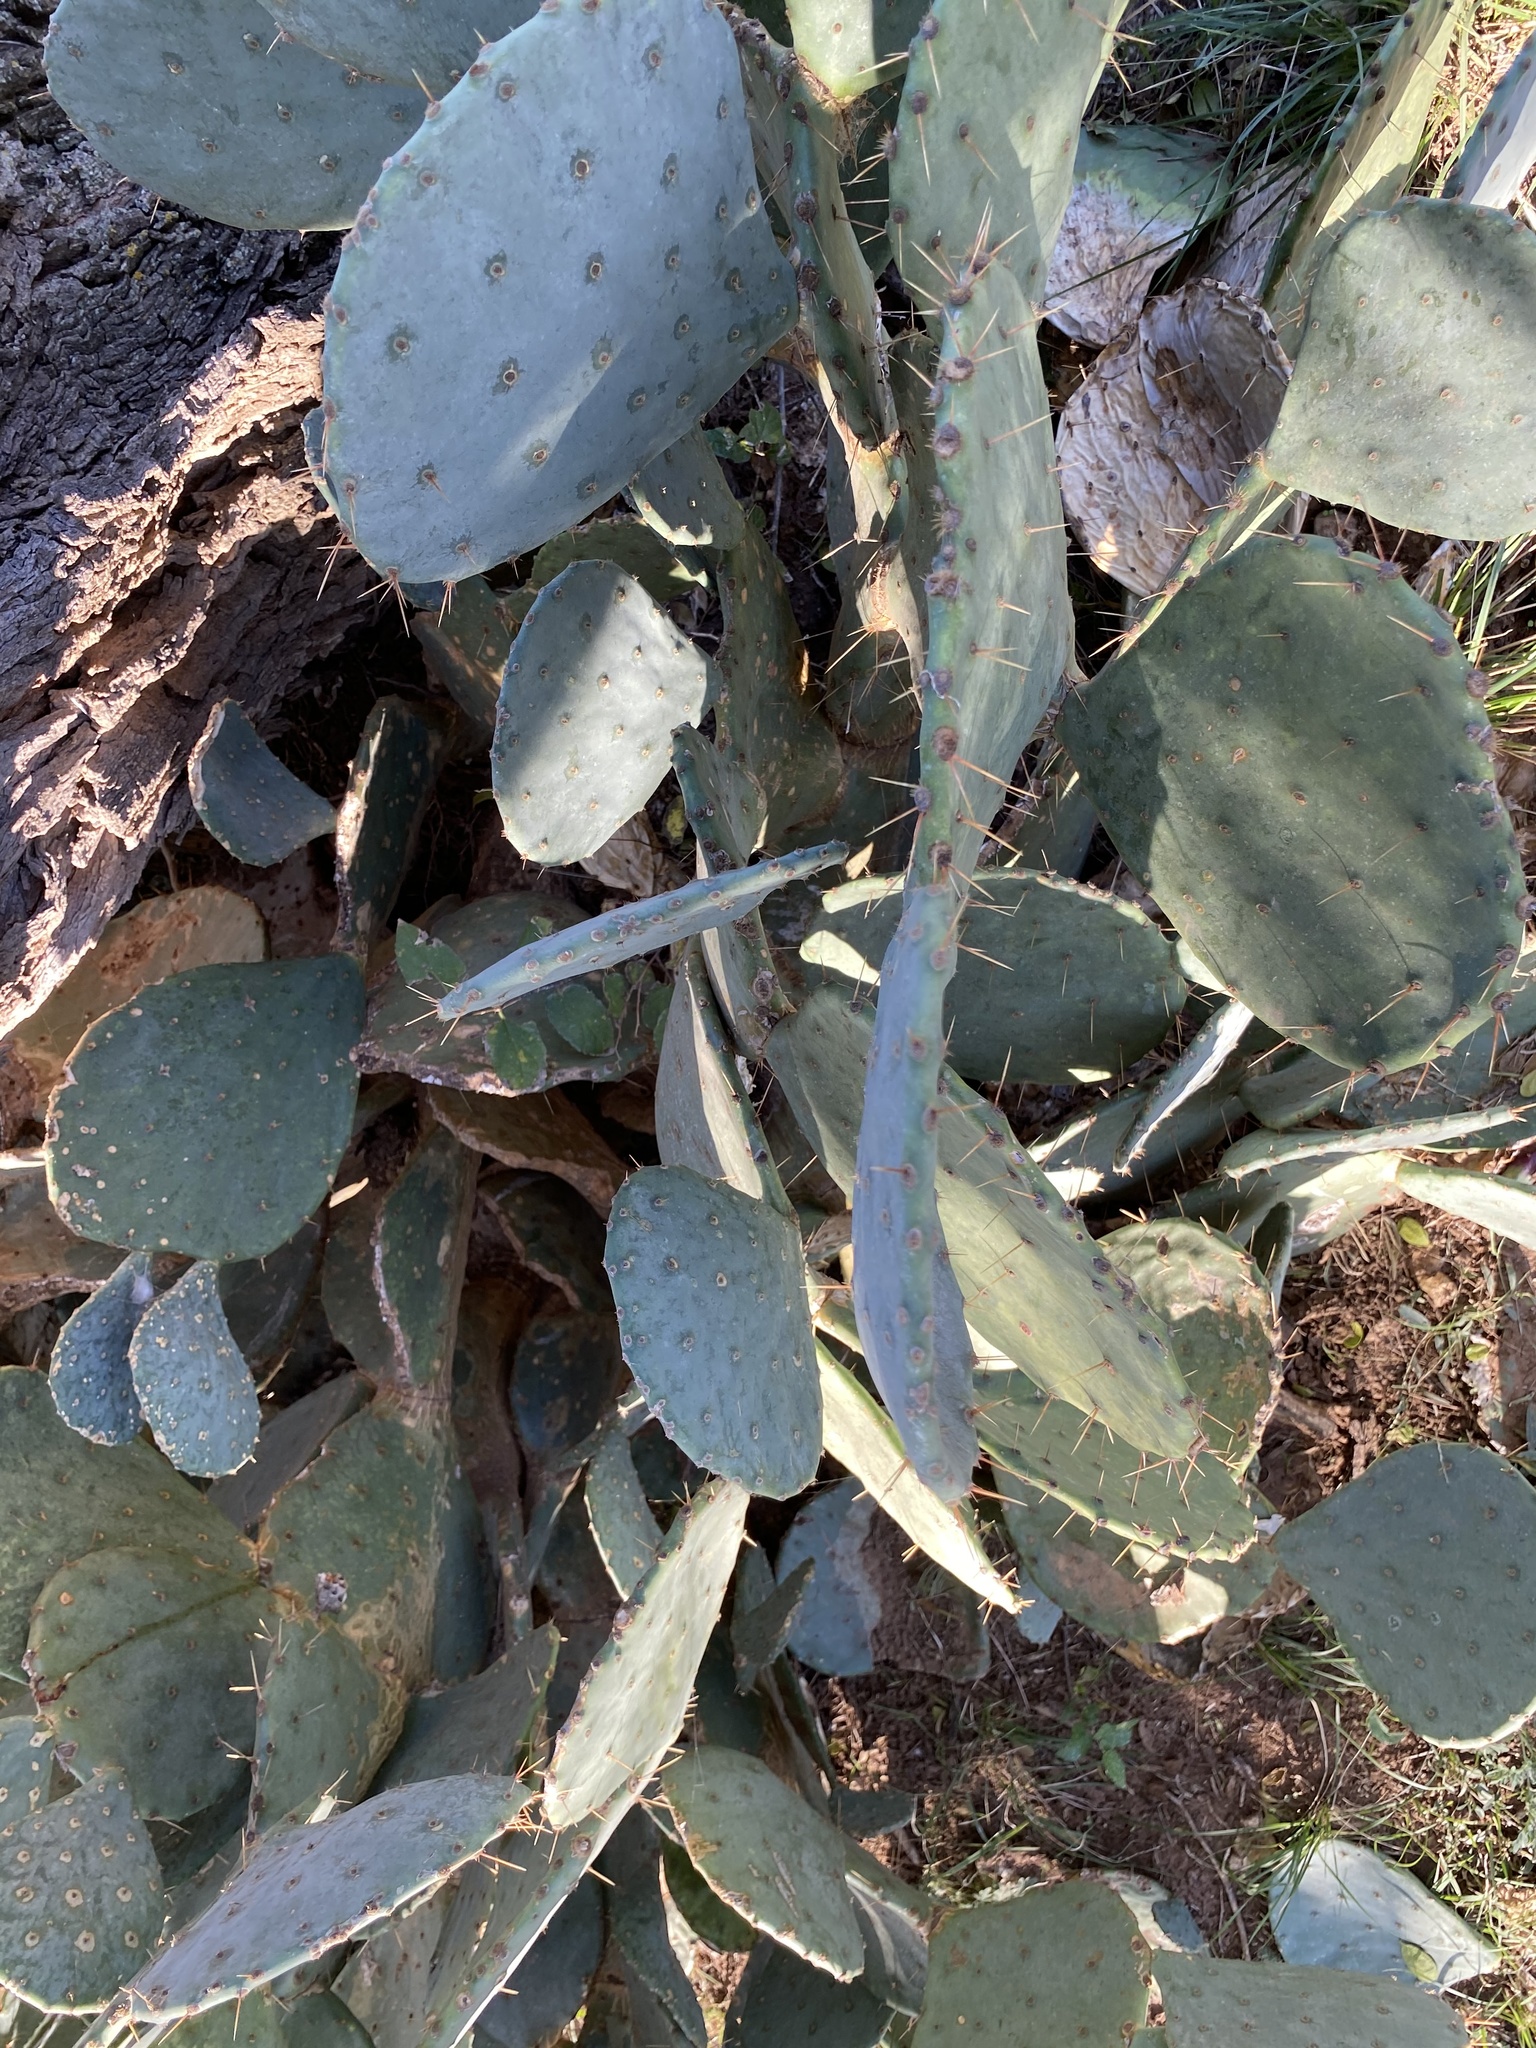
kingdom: Plantae
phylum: Tracheophyta
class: Magnoliopsida
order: Caryophyllales
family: Cactaceae
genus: Opuntia
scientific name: Opuntia orbiculata
